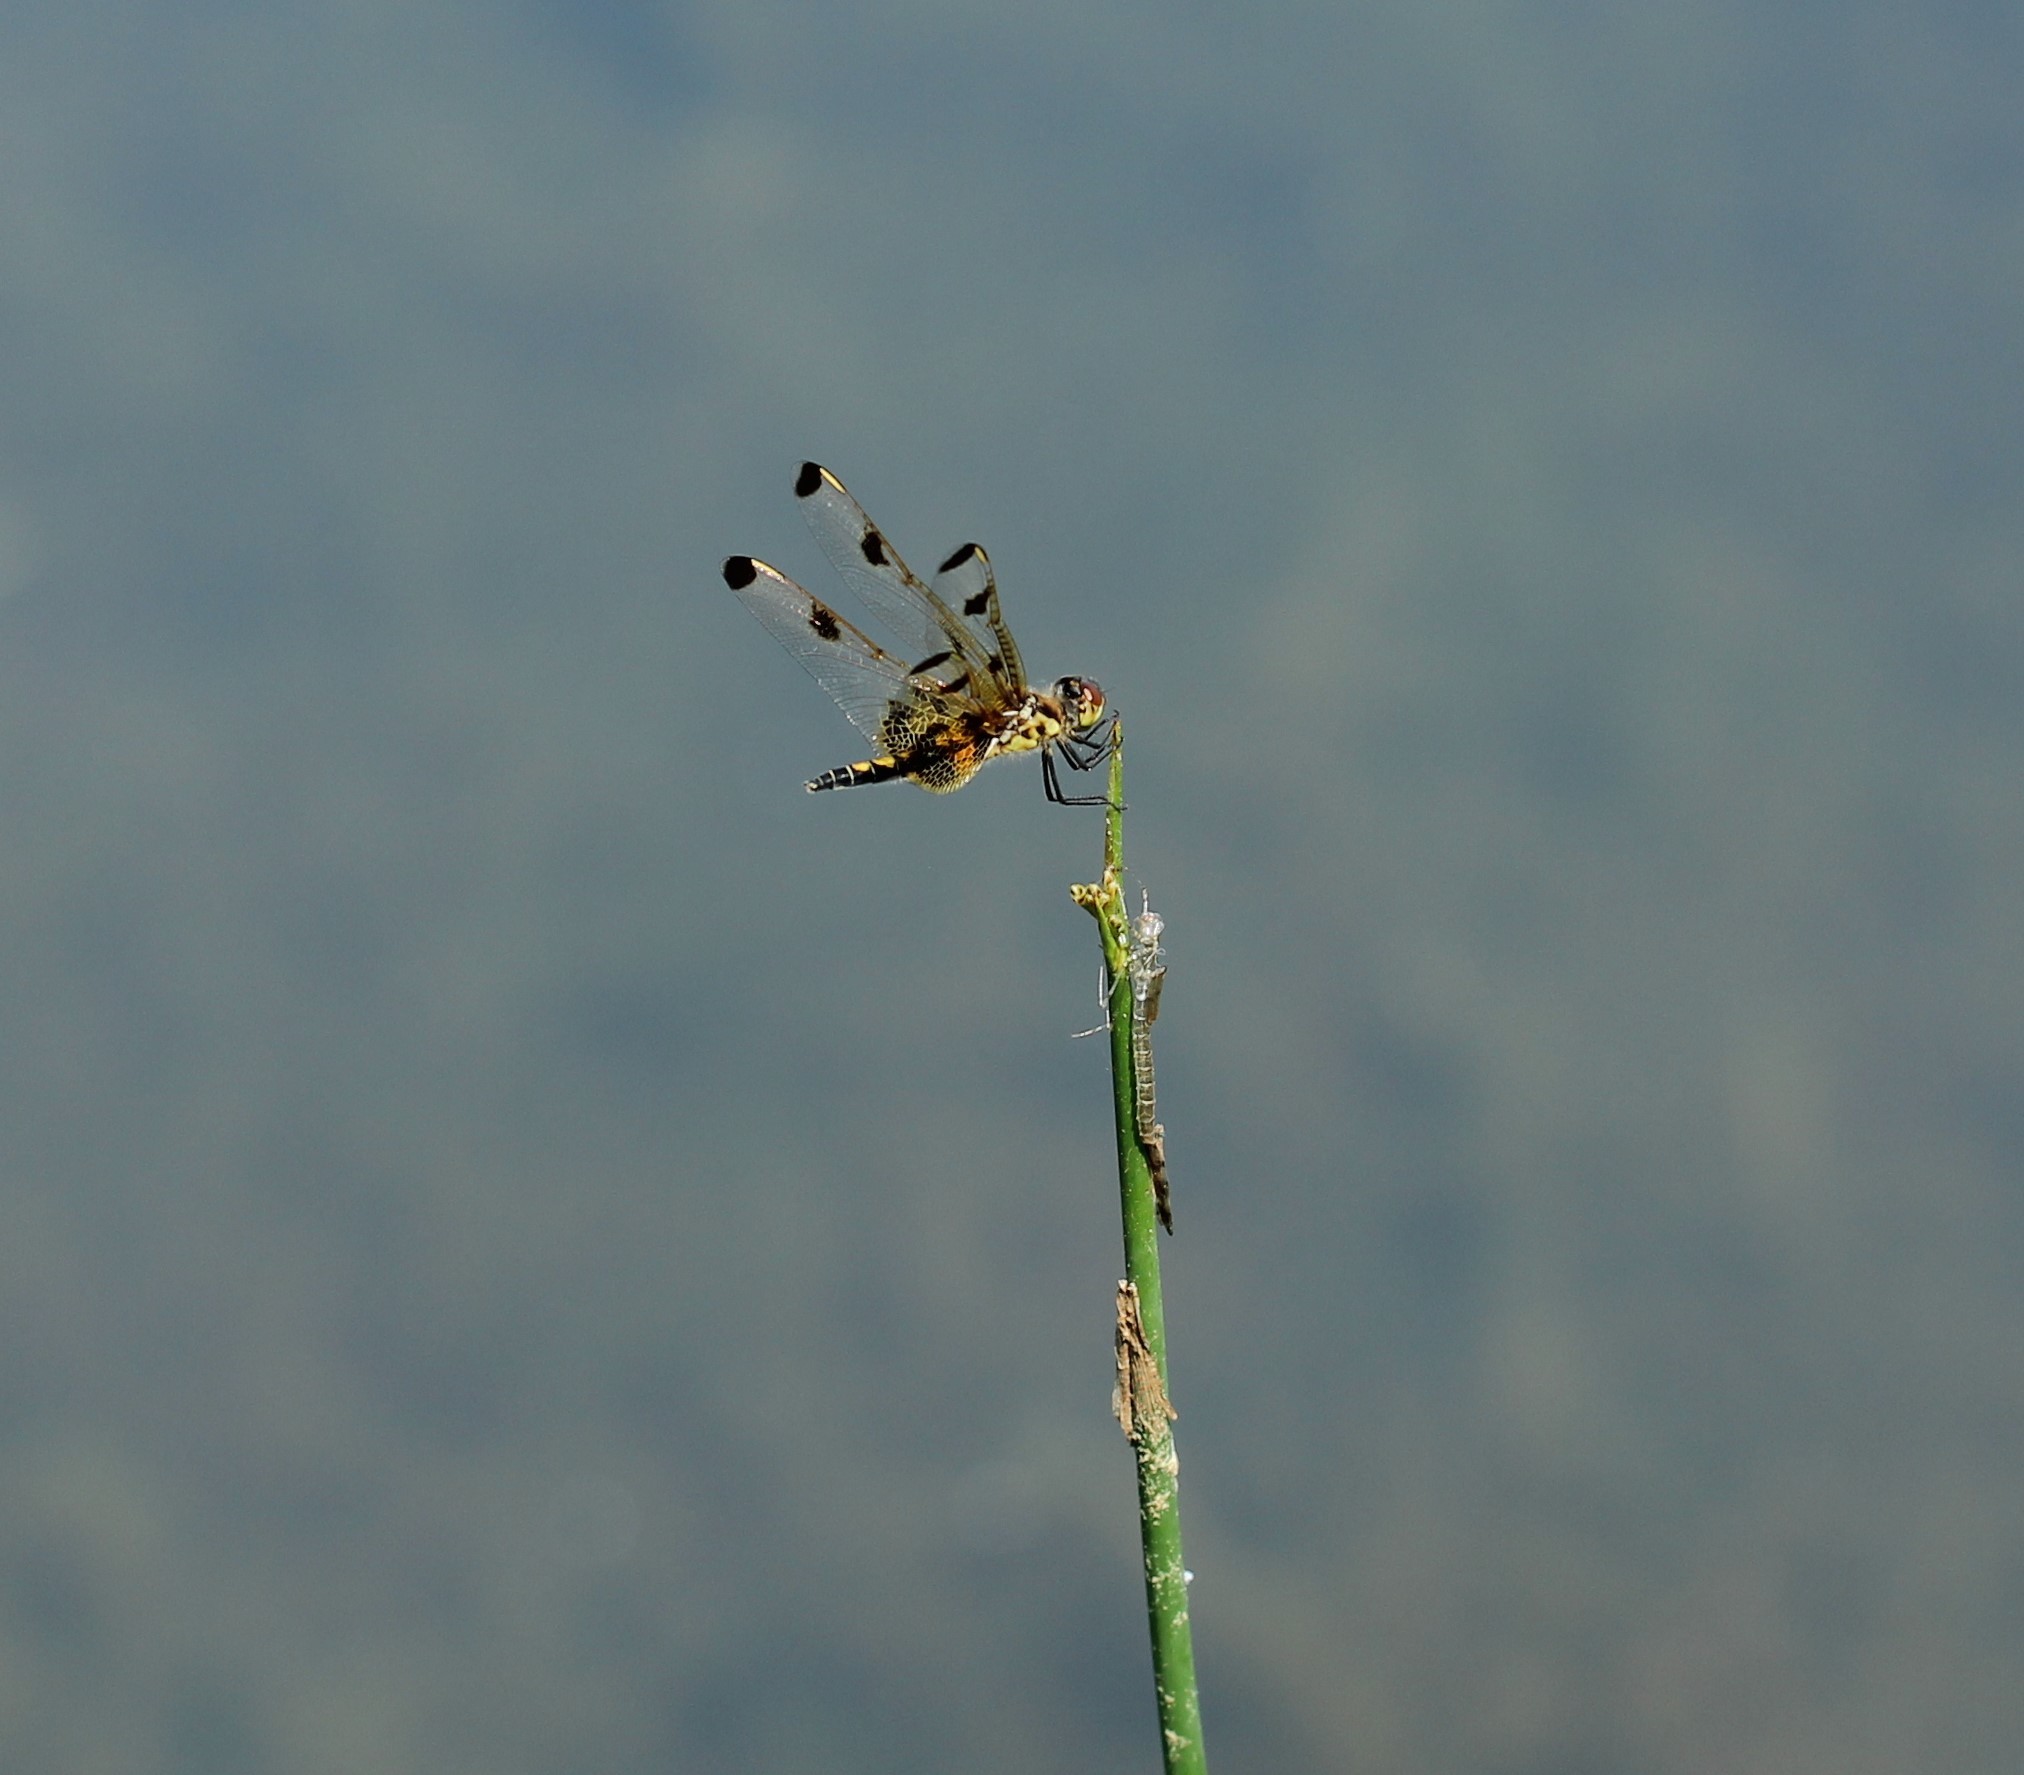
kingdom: Animalia
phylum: Arthropoda
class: Insecta
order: Odonata
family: Libellulidae
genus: Celithemis
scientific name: Celithemis elisa
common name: Calico pennant
